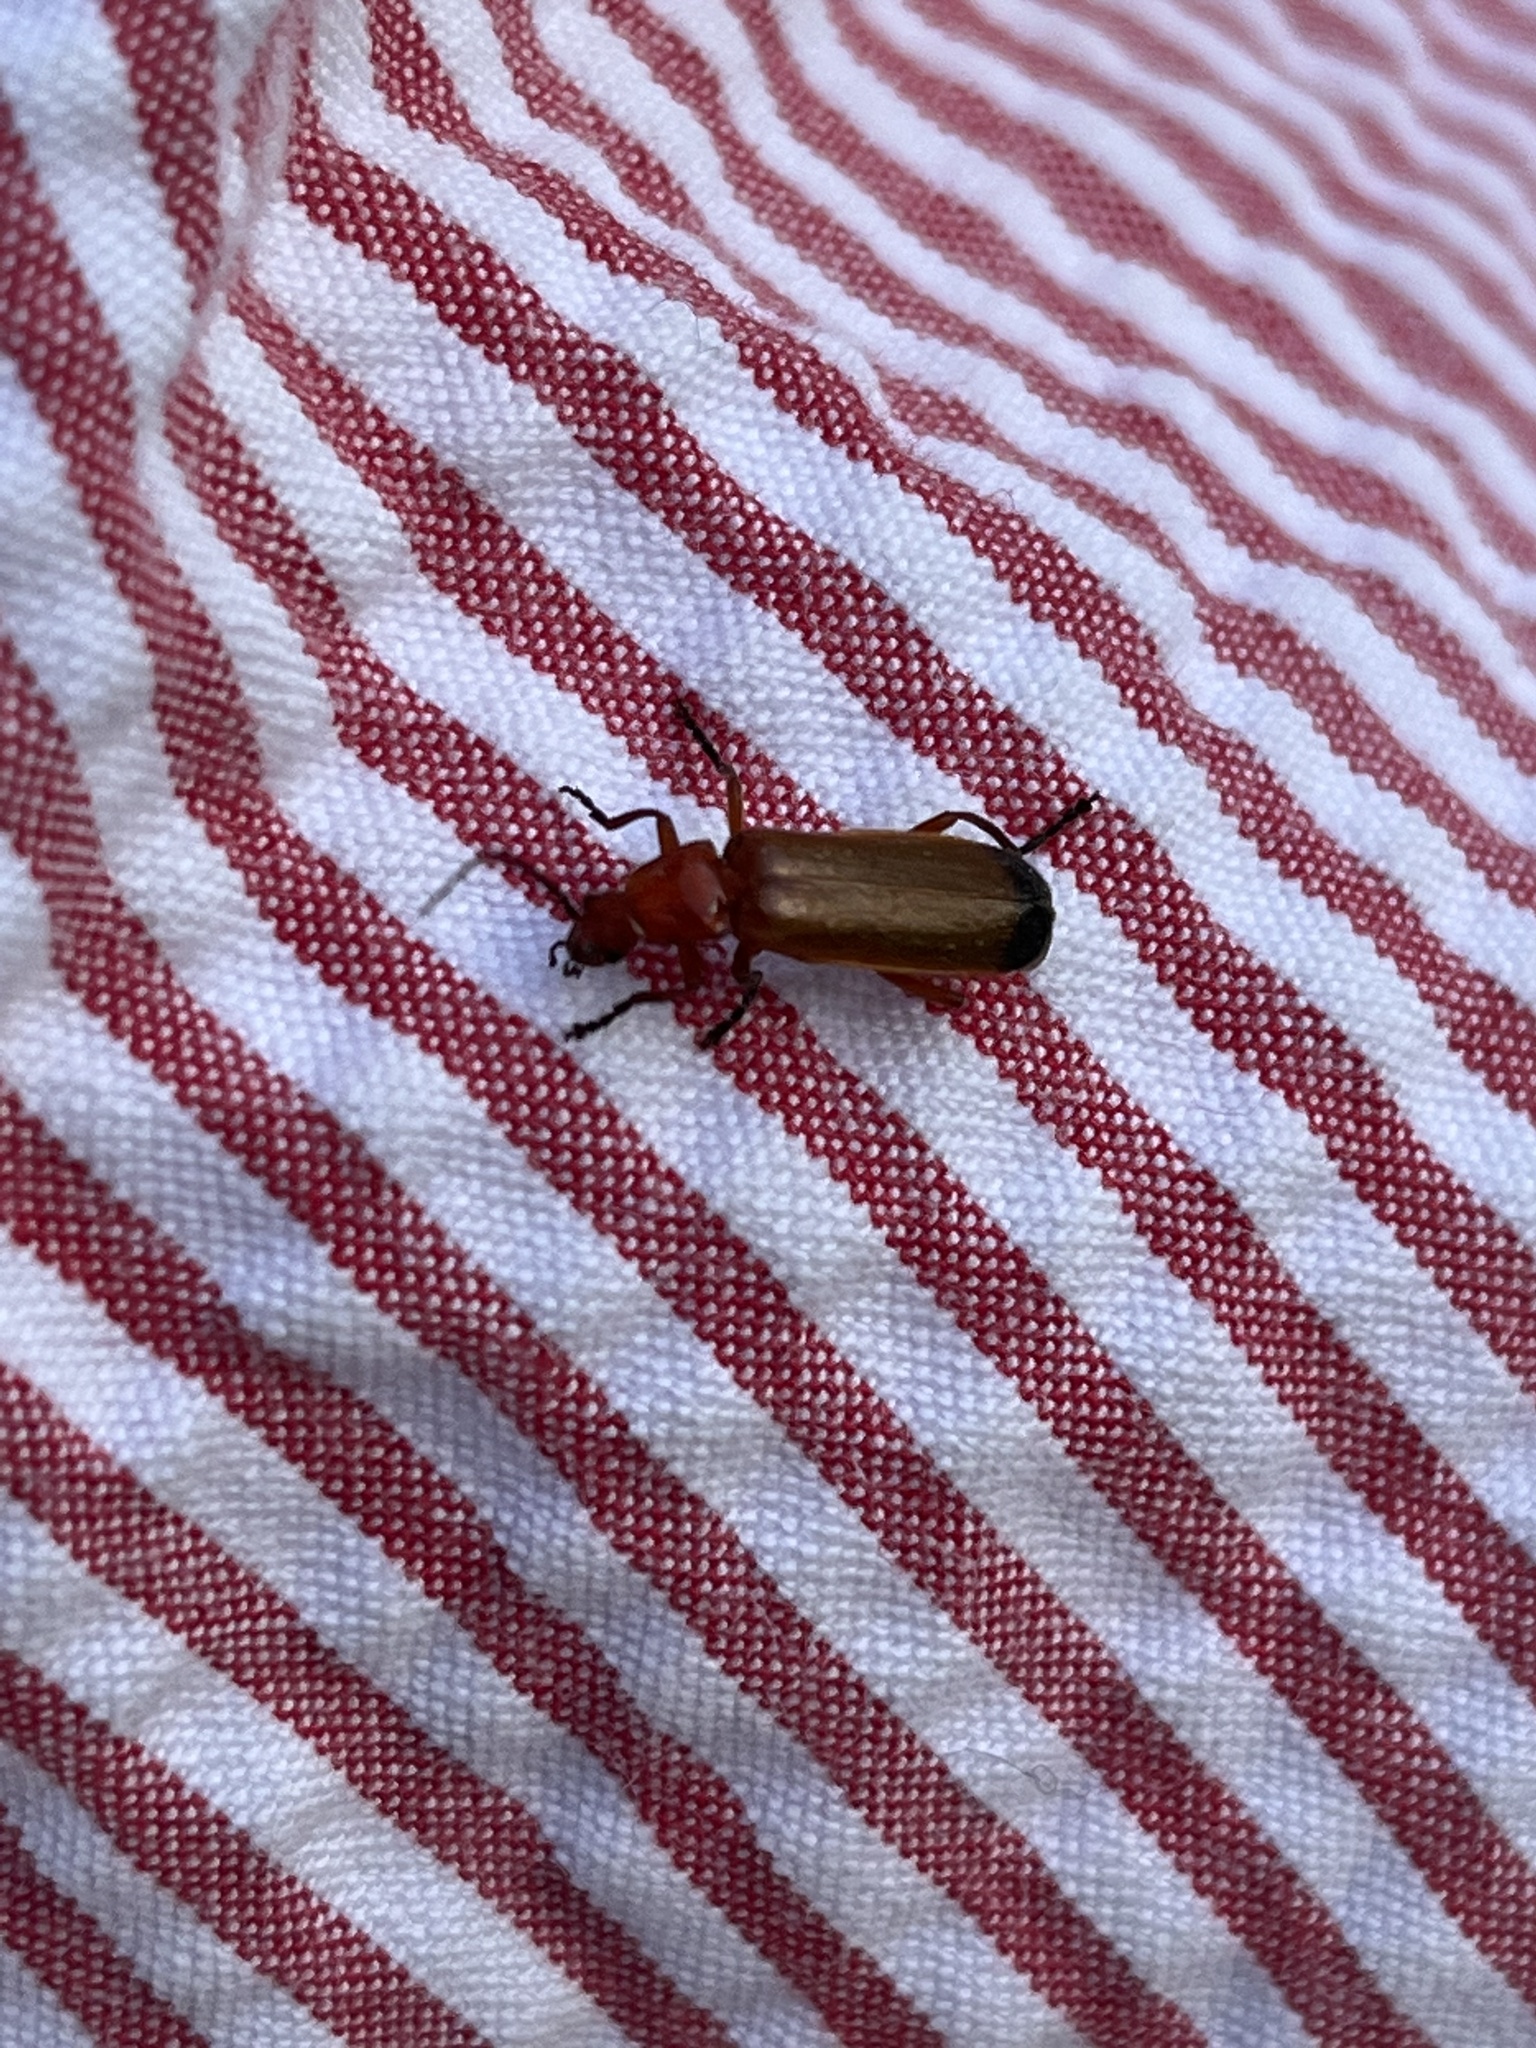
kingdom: Animalia
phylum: Arthropoda
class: Insecta
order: Coleoptera
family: Cantharidae
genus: Rhagonycha
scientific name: Rhagonycha fulva
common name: Common red soldier beetle
